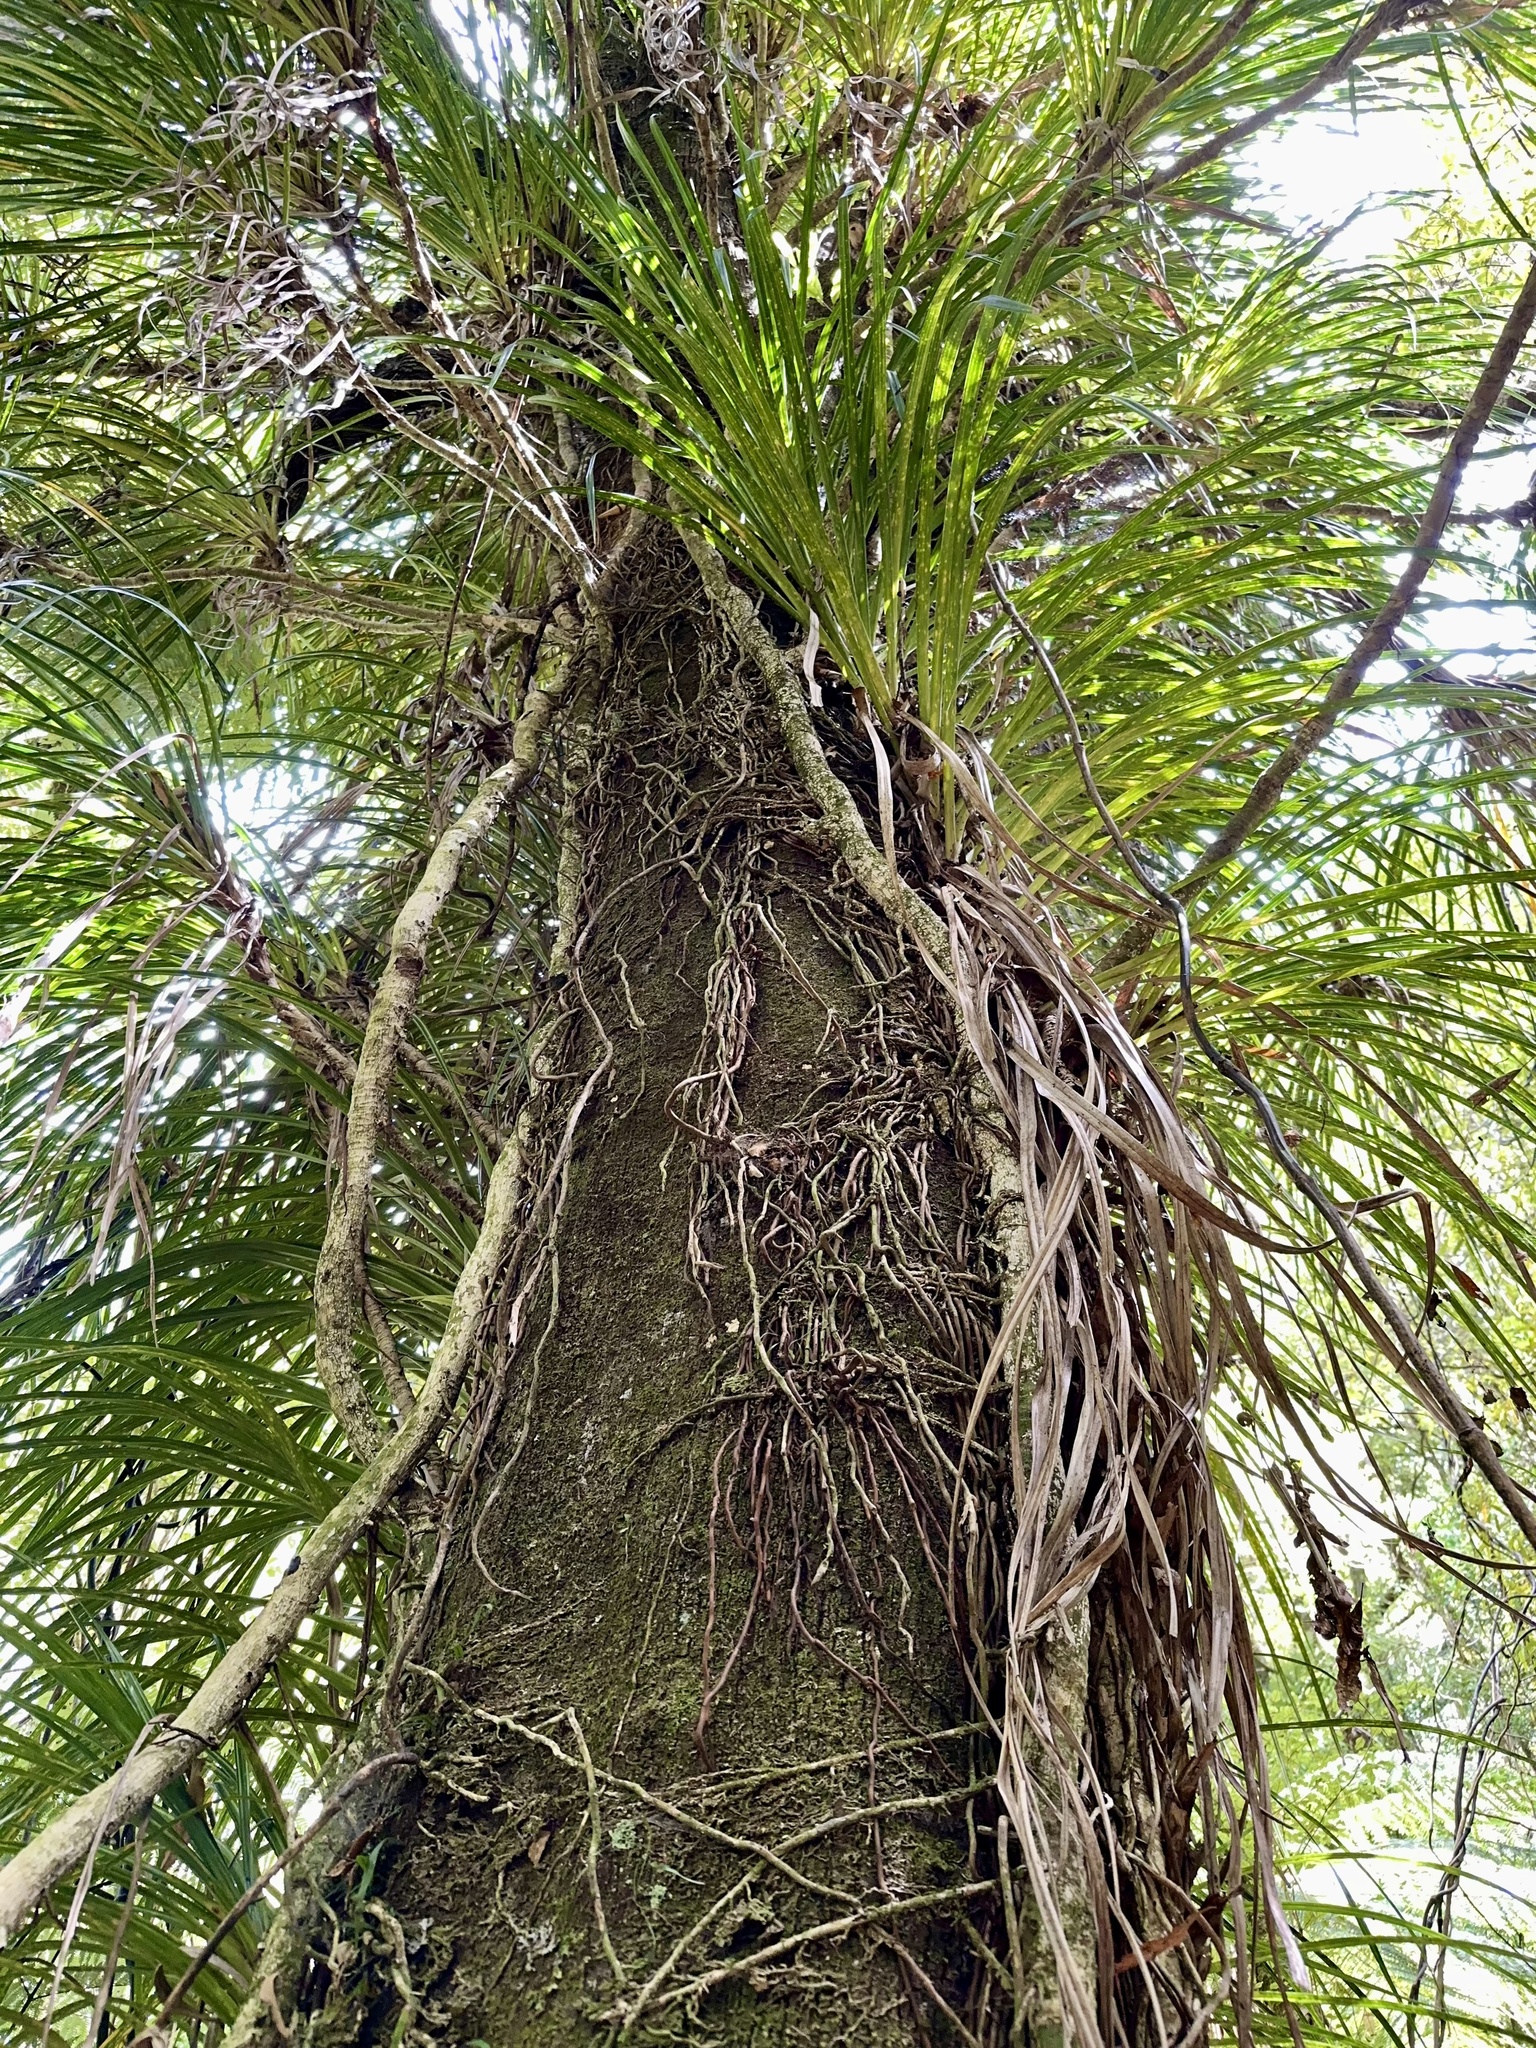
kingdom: Plantae
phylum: Tracheophyta
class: Liliopsida
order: Pandanales
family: Pandanaceae
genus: Freycinetia
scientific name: Freycinetia banksii
